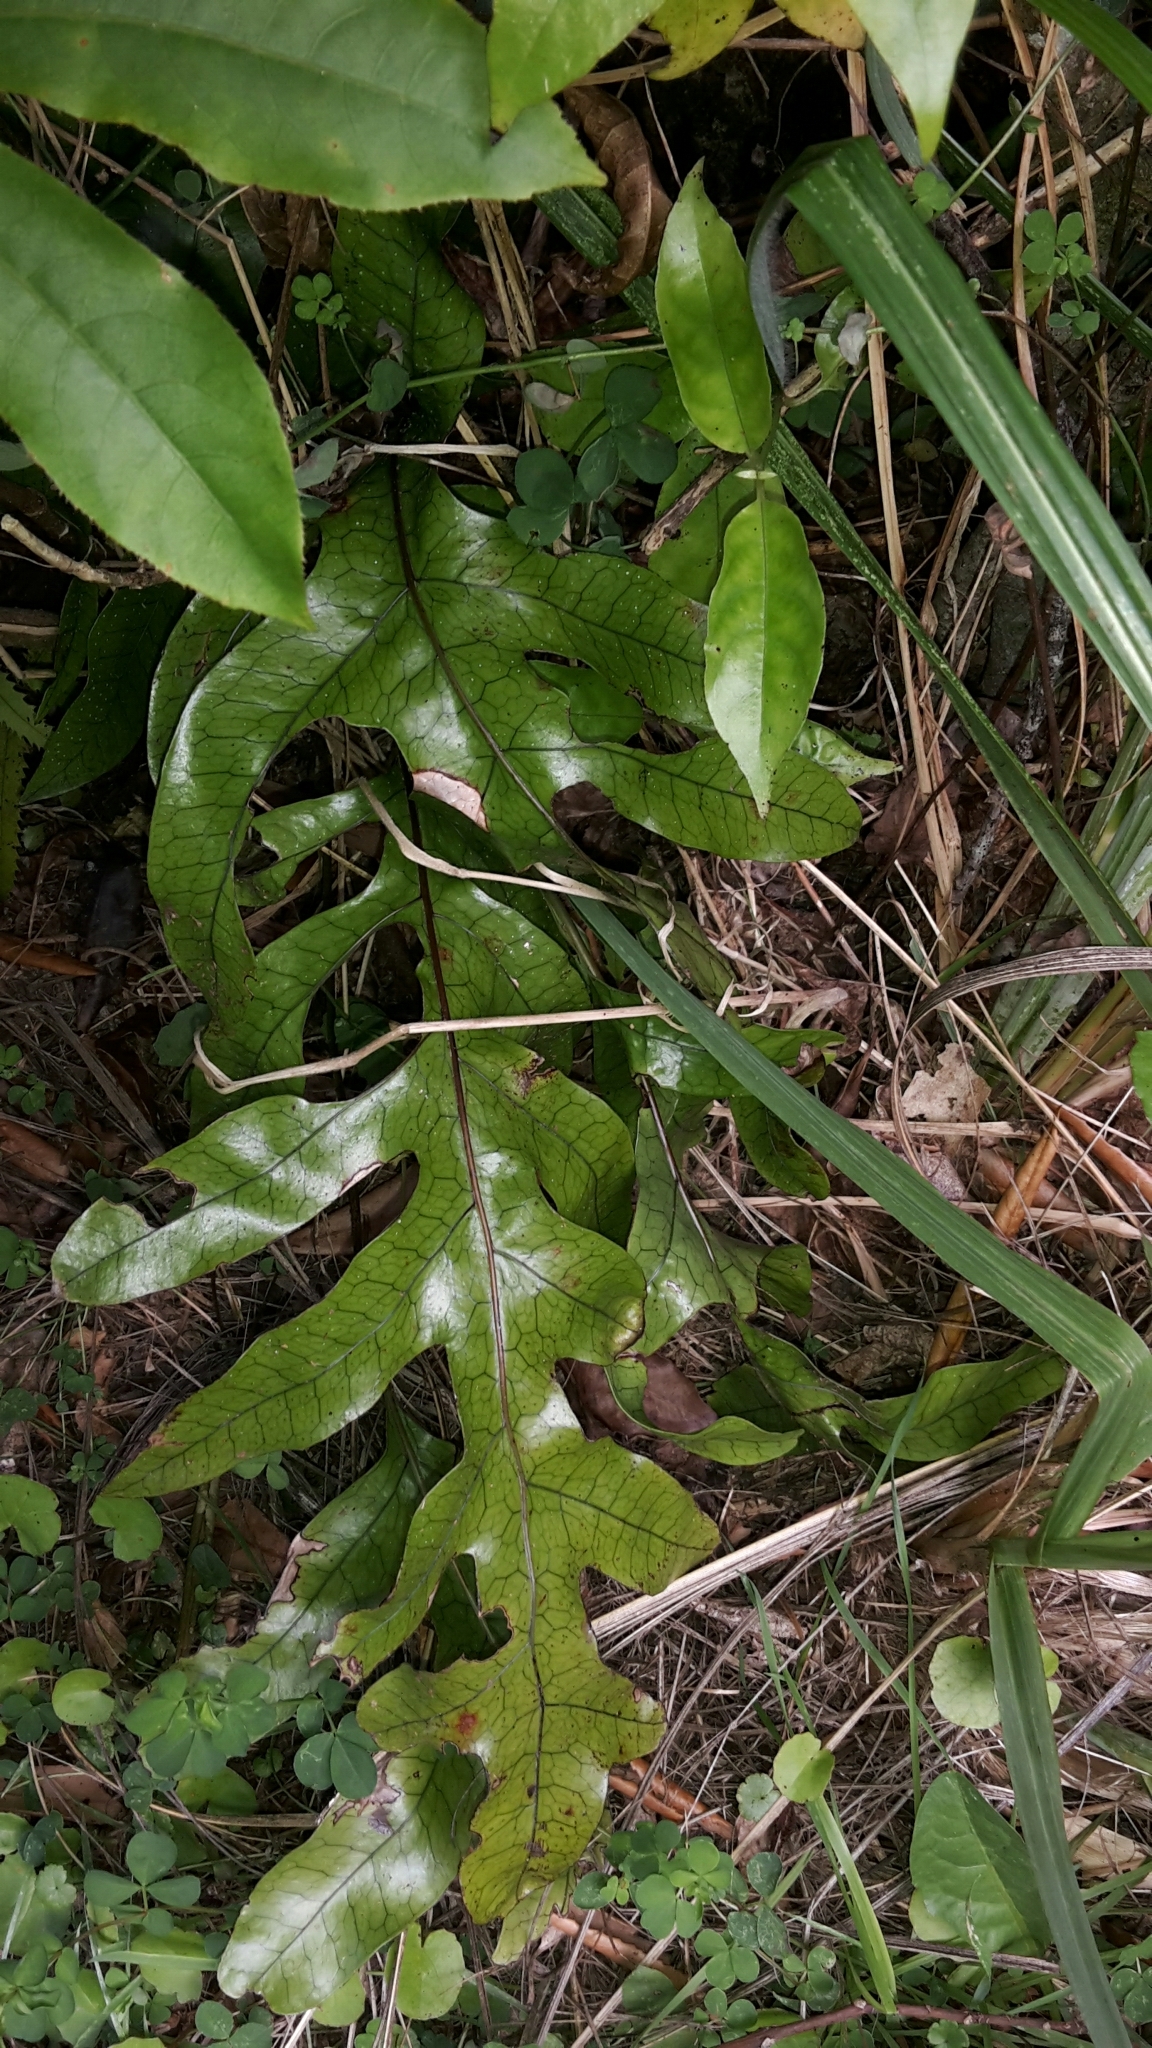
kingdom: Plantae
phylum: Tracheophyta
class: Polypodiopsida
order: Polypodiales
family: Polypodiaceae
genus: Lecanopteris
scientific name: Lecanopteris pustulata
